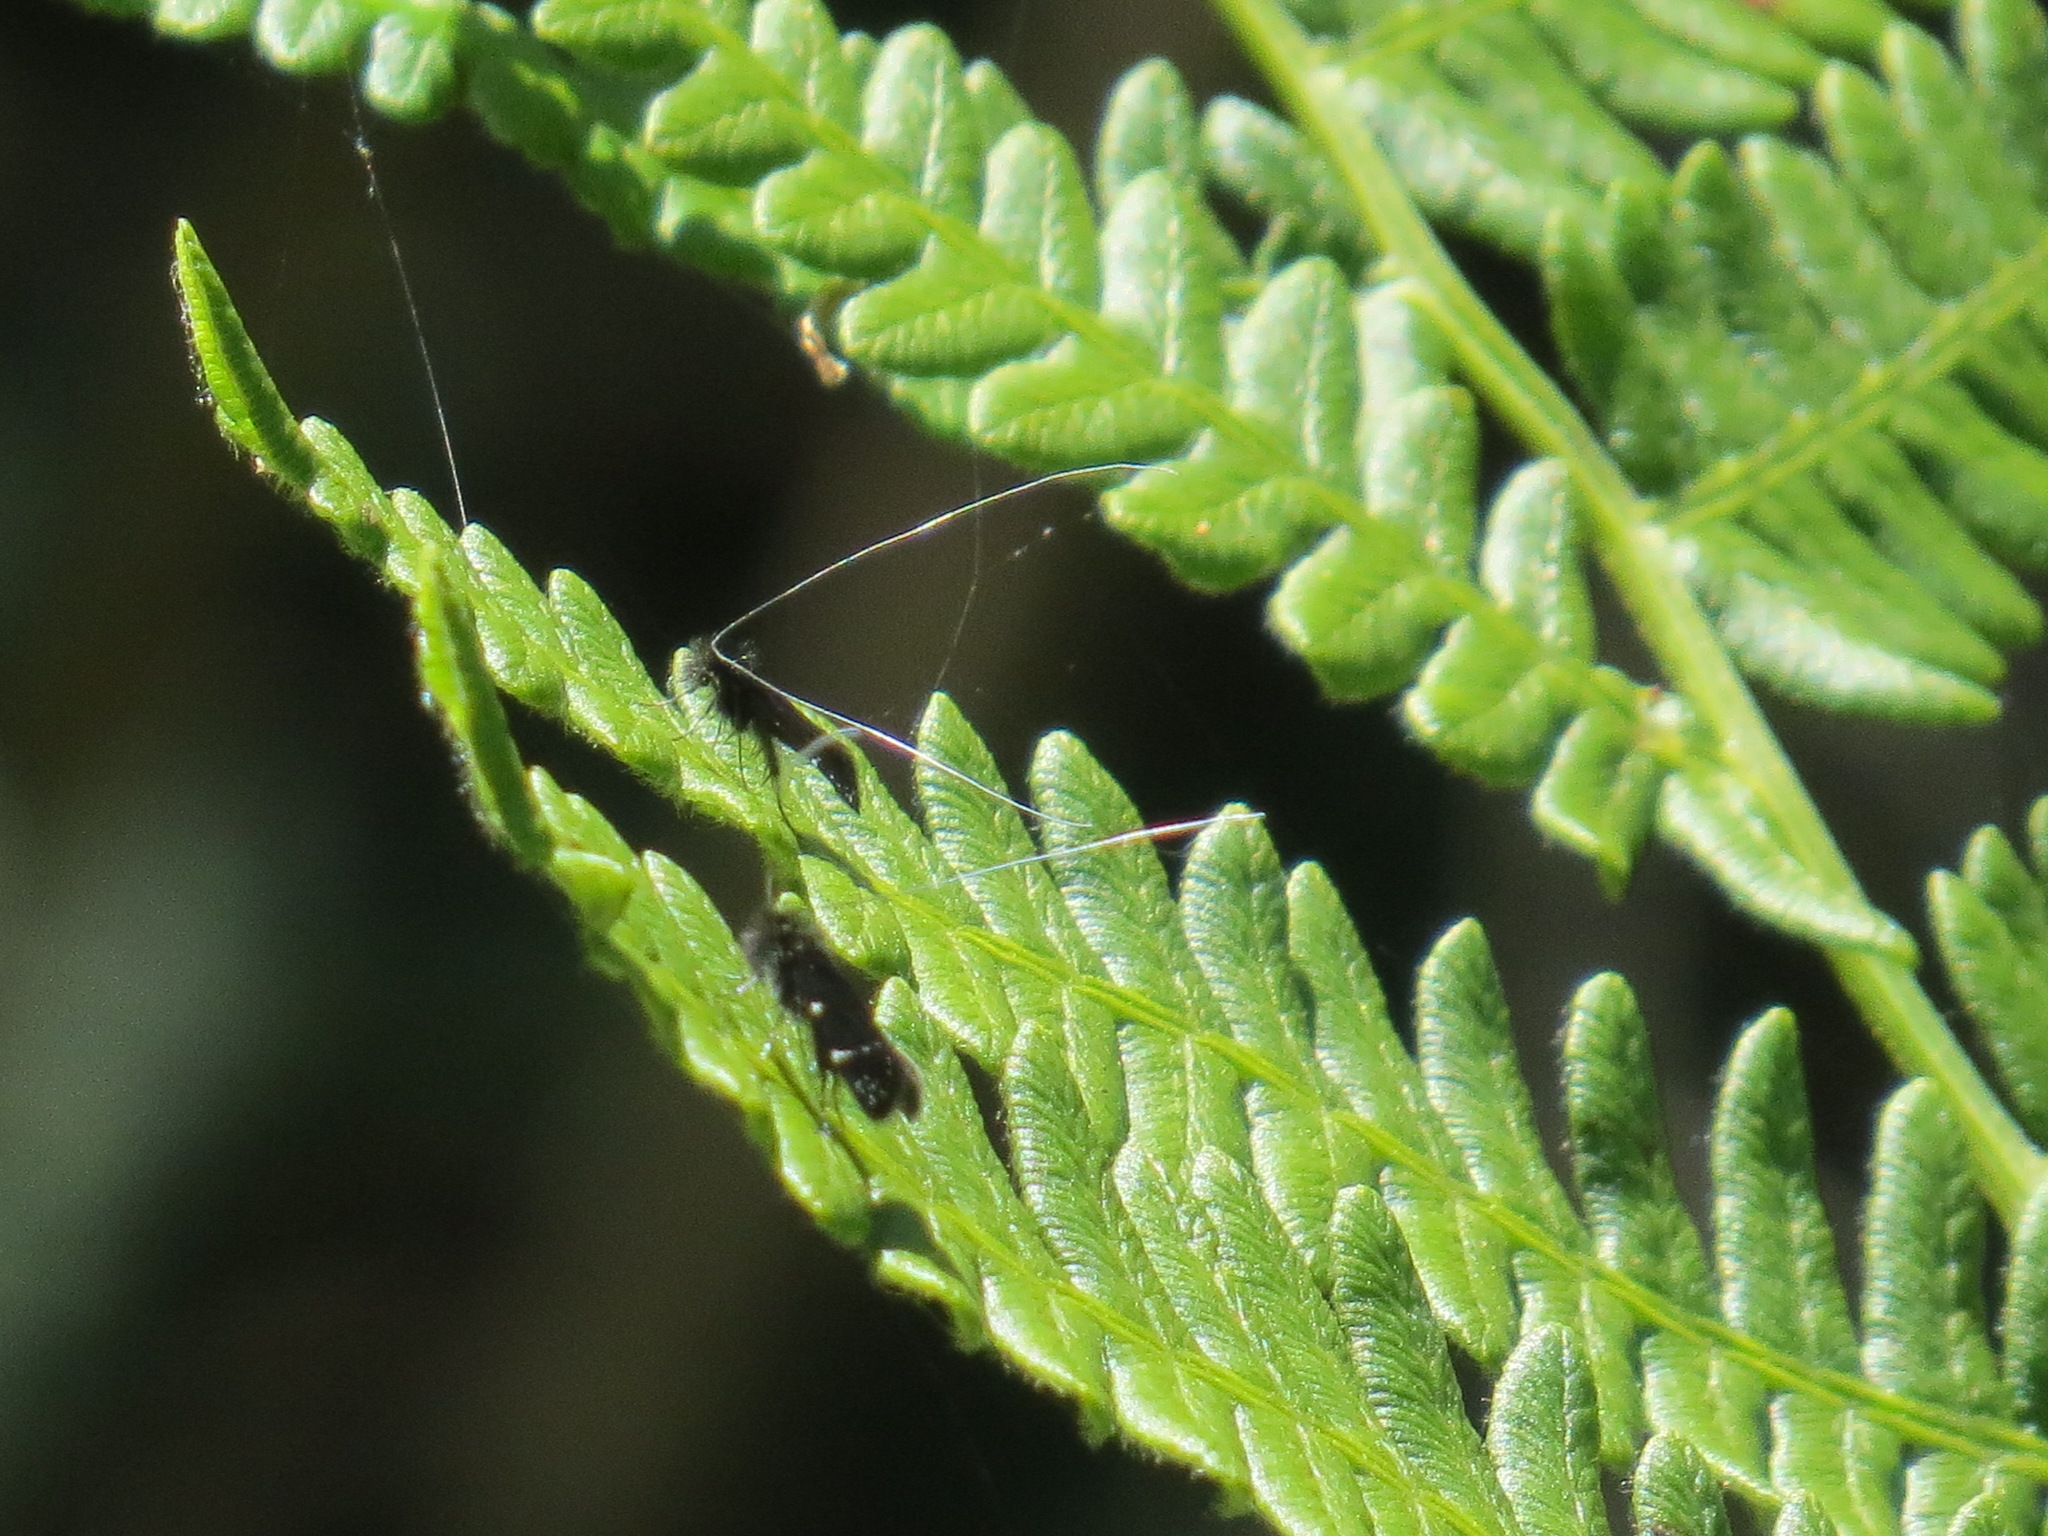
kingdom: Animalia
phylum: Arthropoda
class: Insecta
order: Lepidoptera
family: Adelidae
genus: Adela
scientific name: Adela septentrionella
